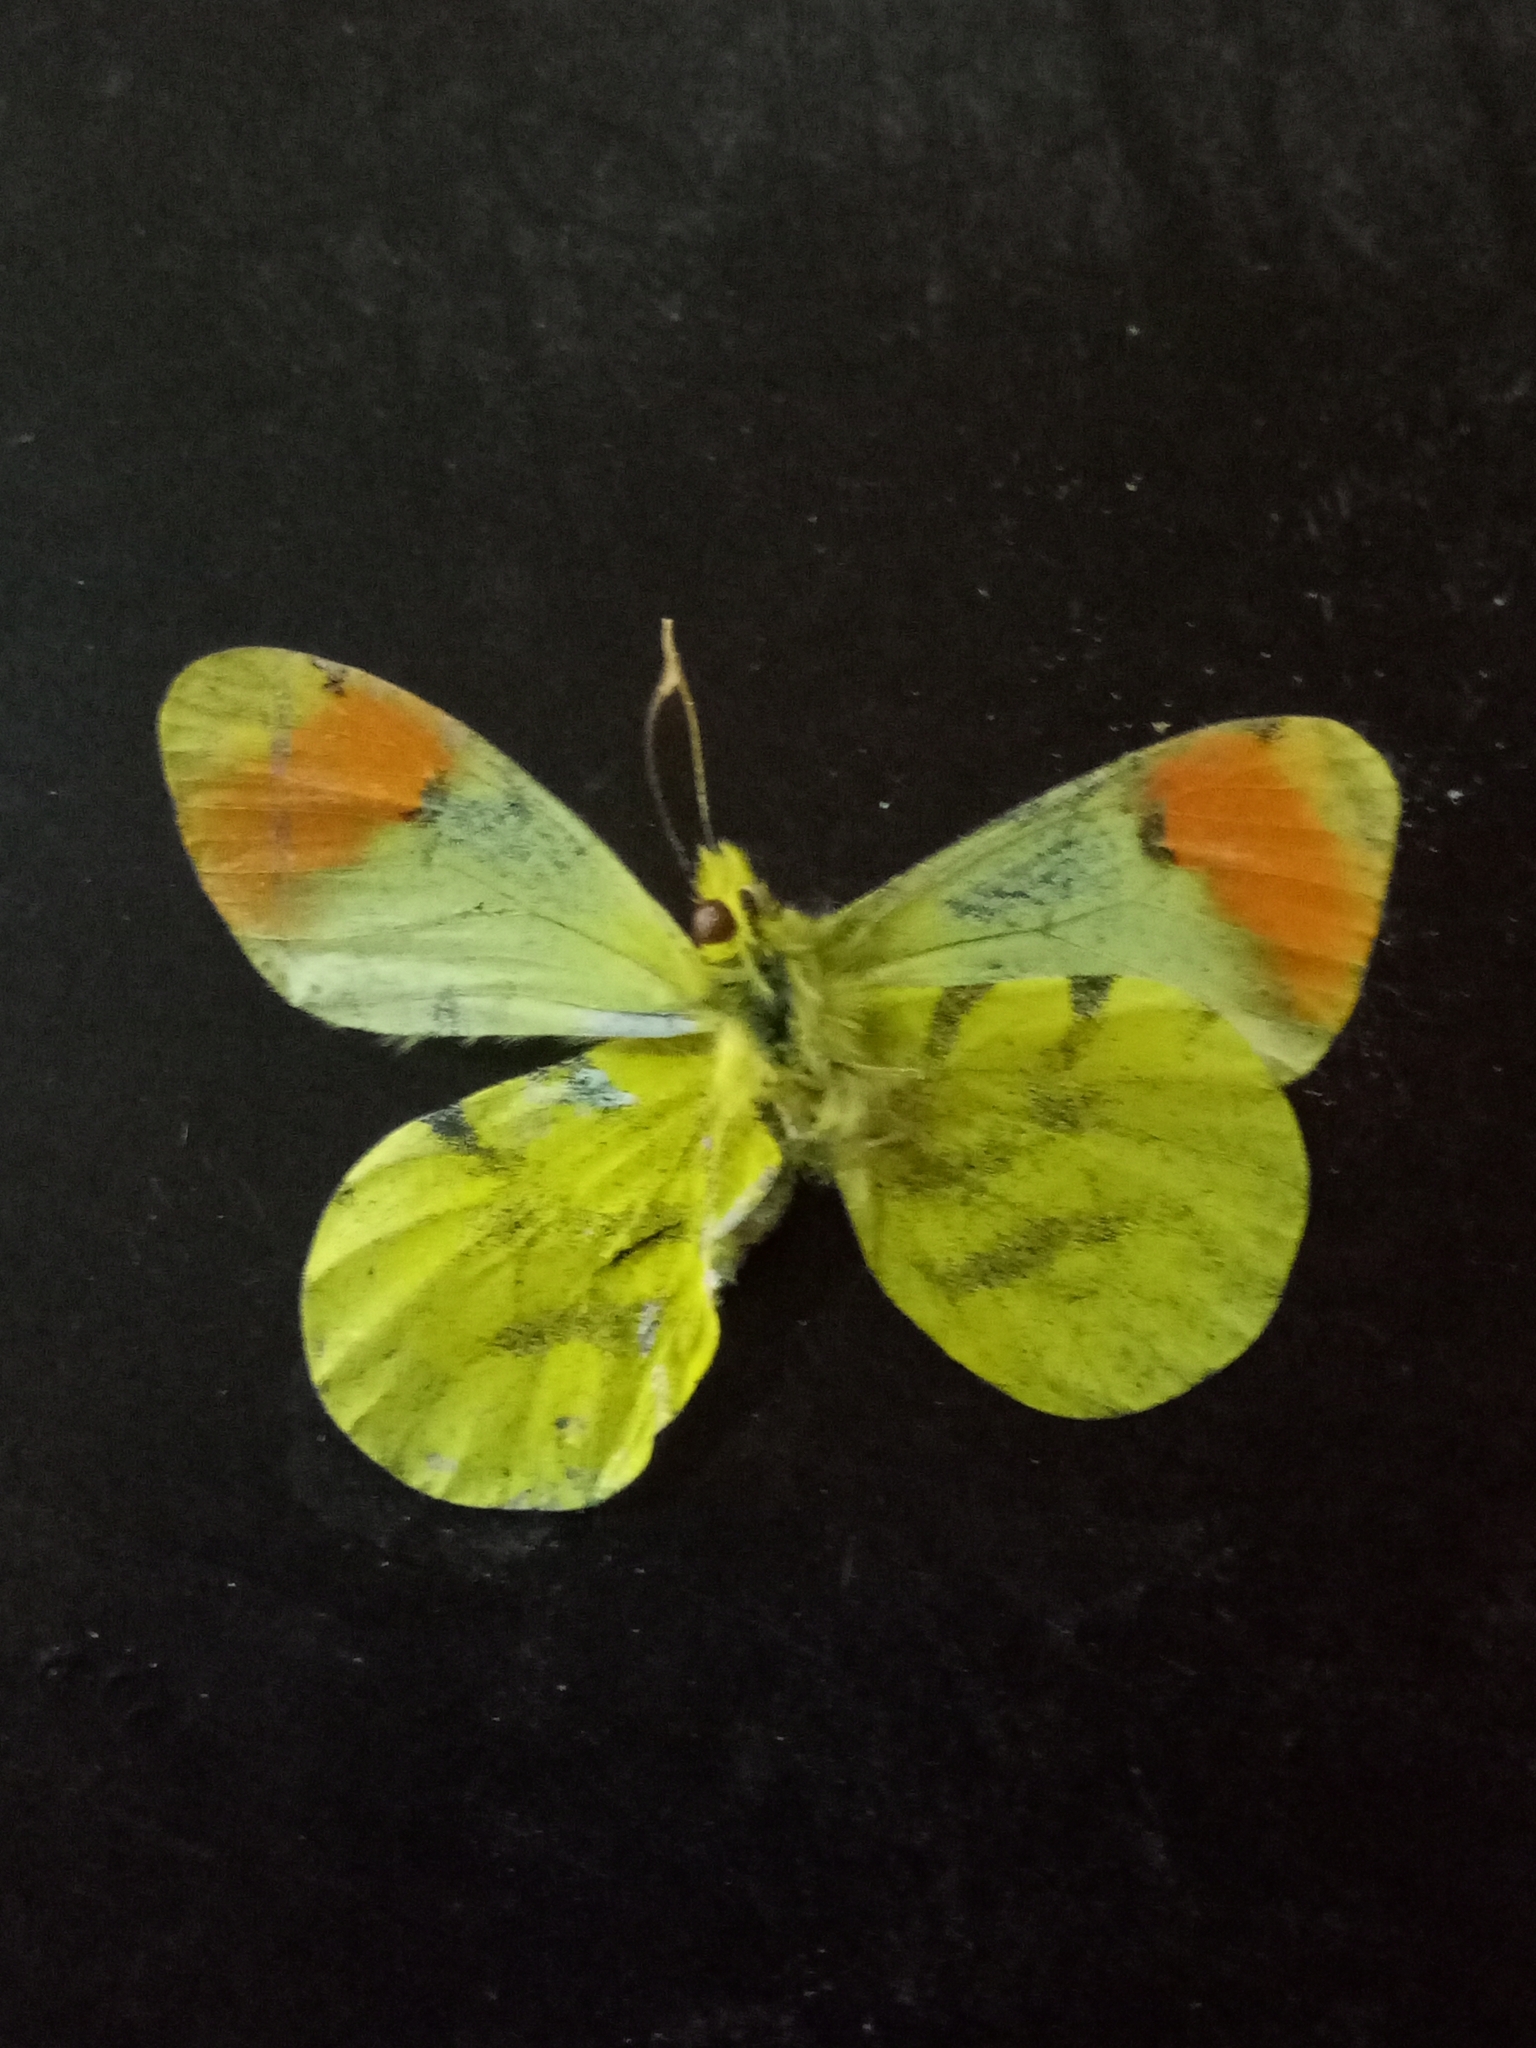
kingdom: Animalia
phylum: Arthropoda
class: Insecta
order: Lepidoptera
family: Pieridae
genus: Anthocharis
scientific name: Anthocharis belia
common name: Moroccan orange tip
